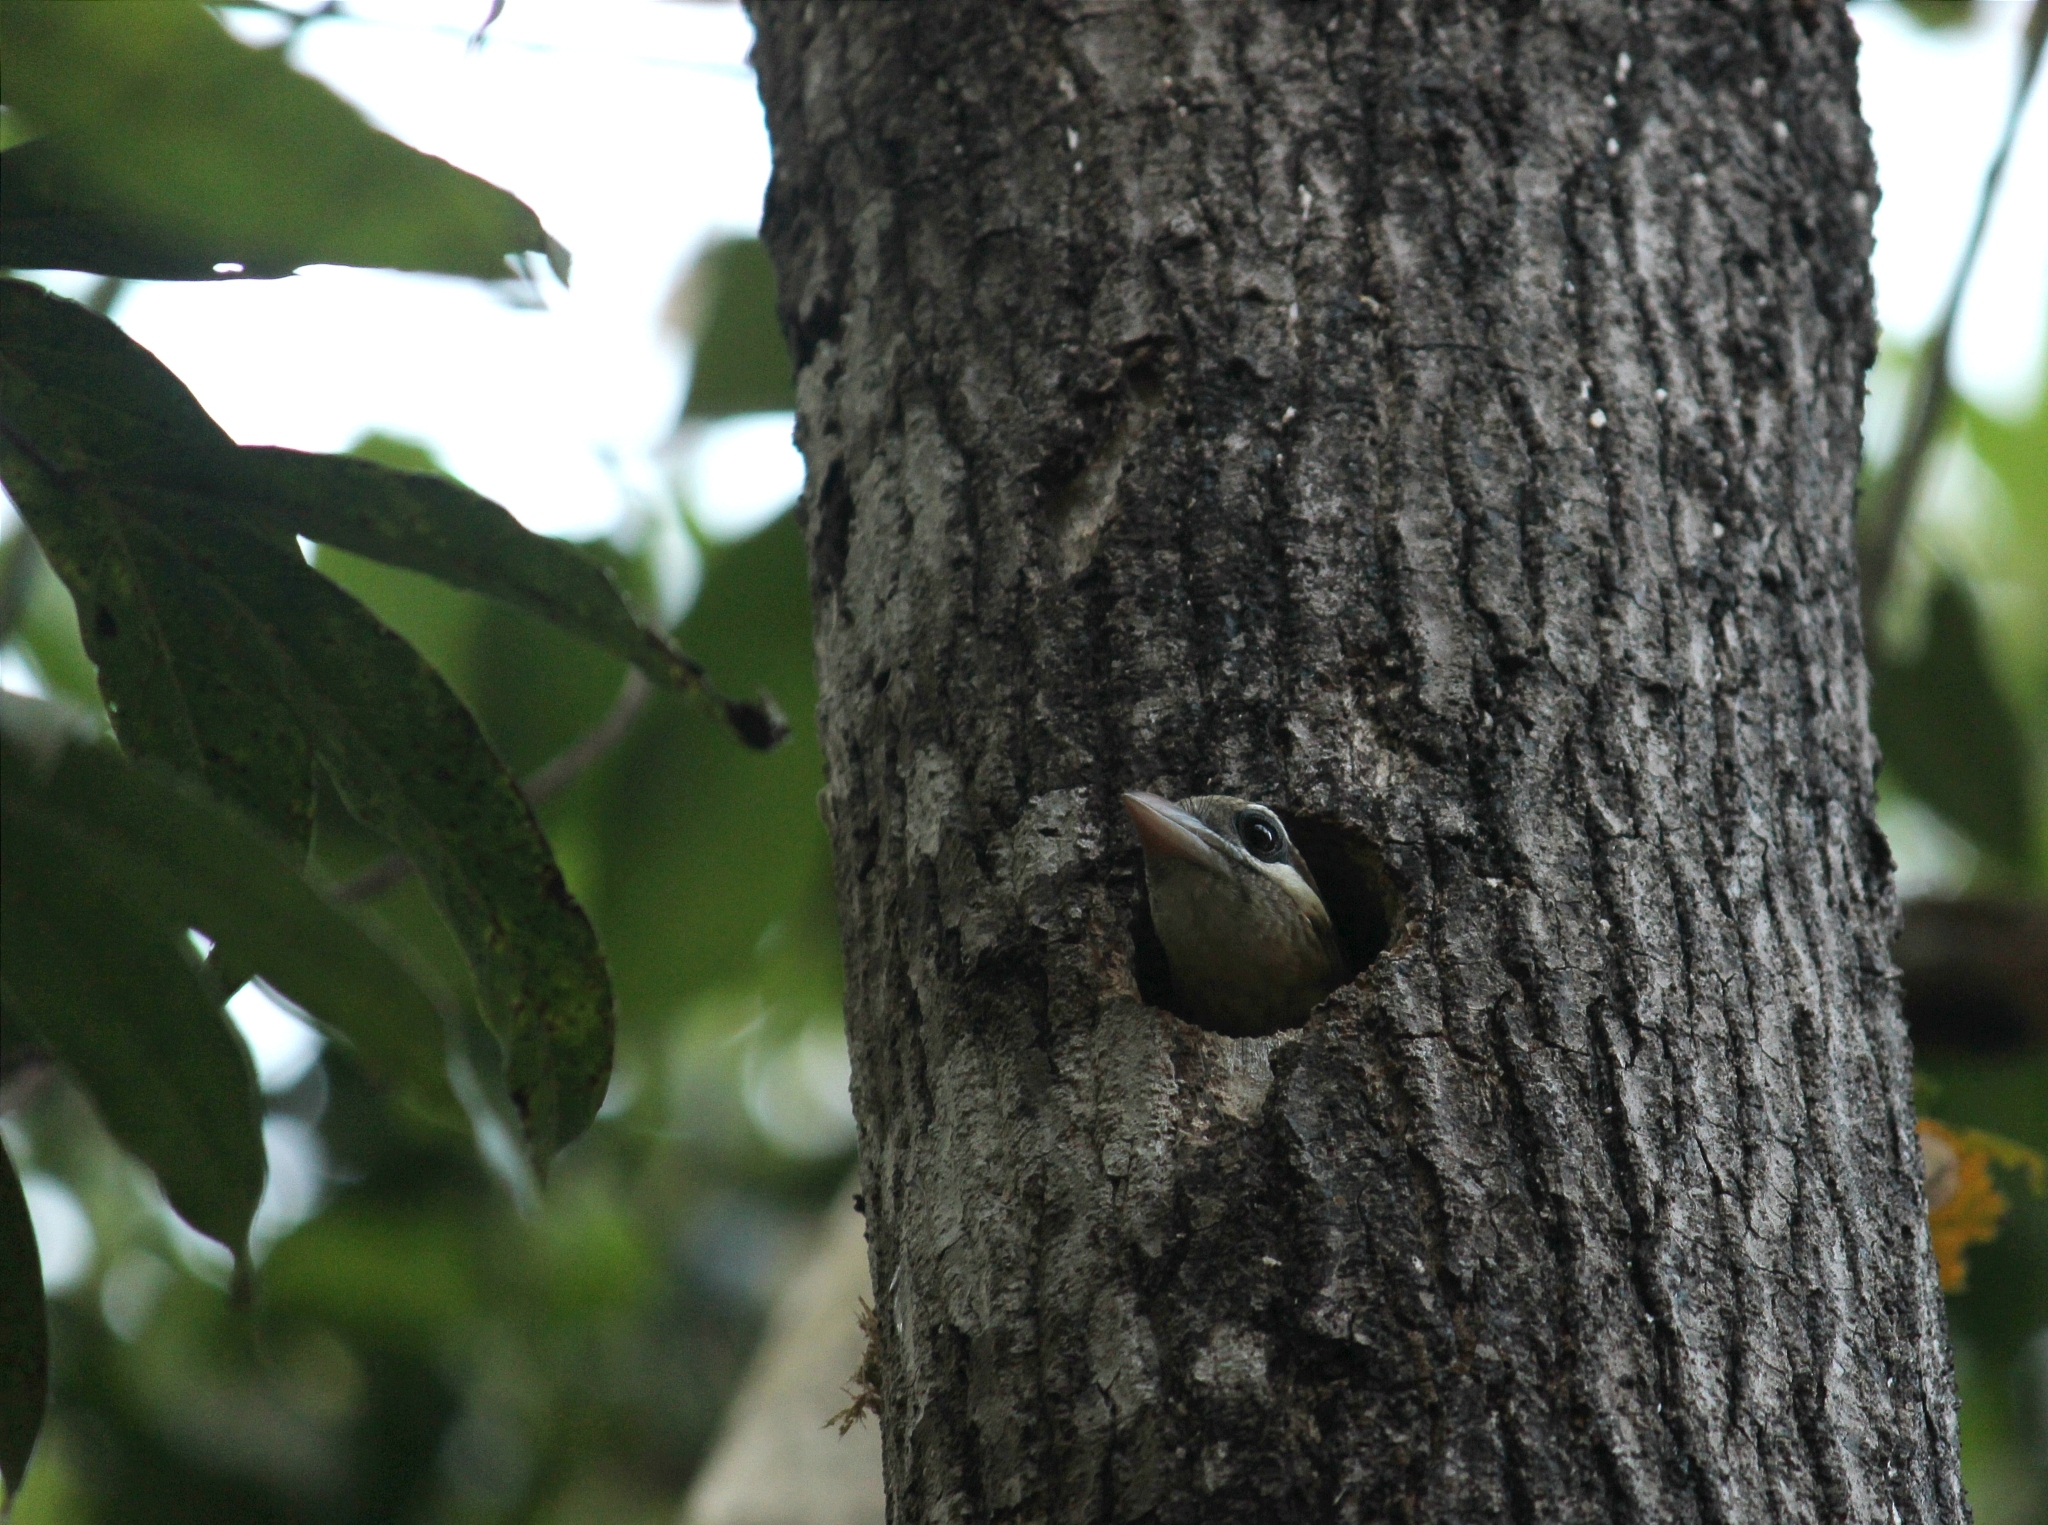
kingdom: Animalia
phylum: Chordata
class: Aves
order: Piciformes
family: Megalaimidae
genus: Psilopogon
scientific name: Psilopogon viridis
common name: White-cheeked barbet
